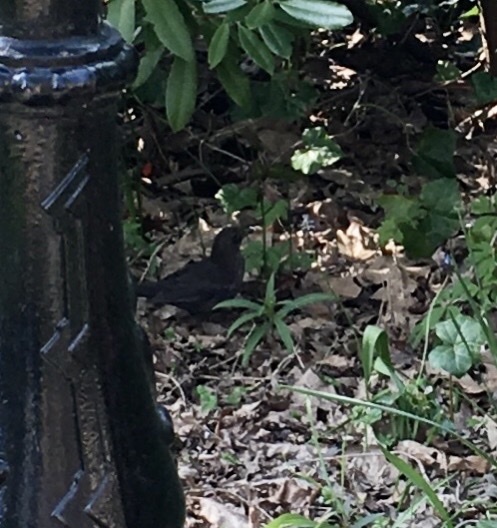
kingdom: Animalia
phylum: Chordata
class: Aves
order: Passeriformes
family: Turdidae
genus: Turdus
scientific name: Turdus merula
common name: Common blackbird
